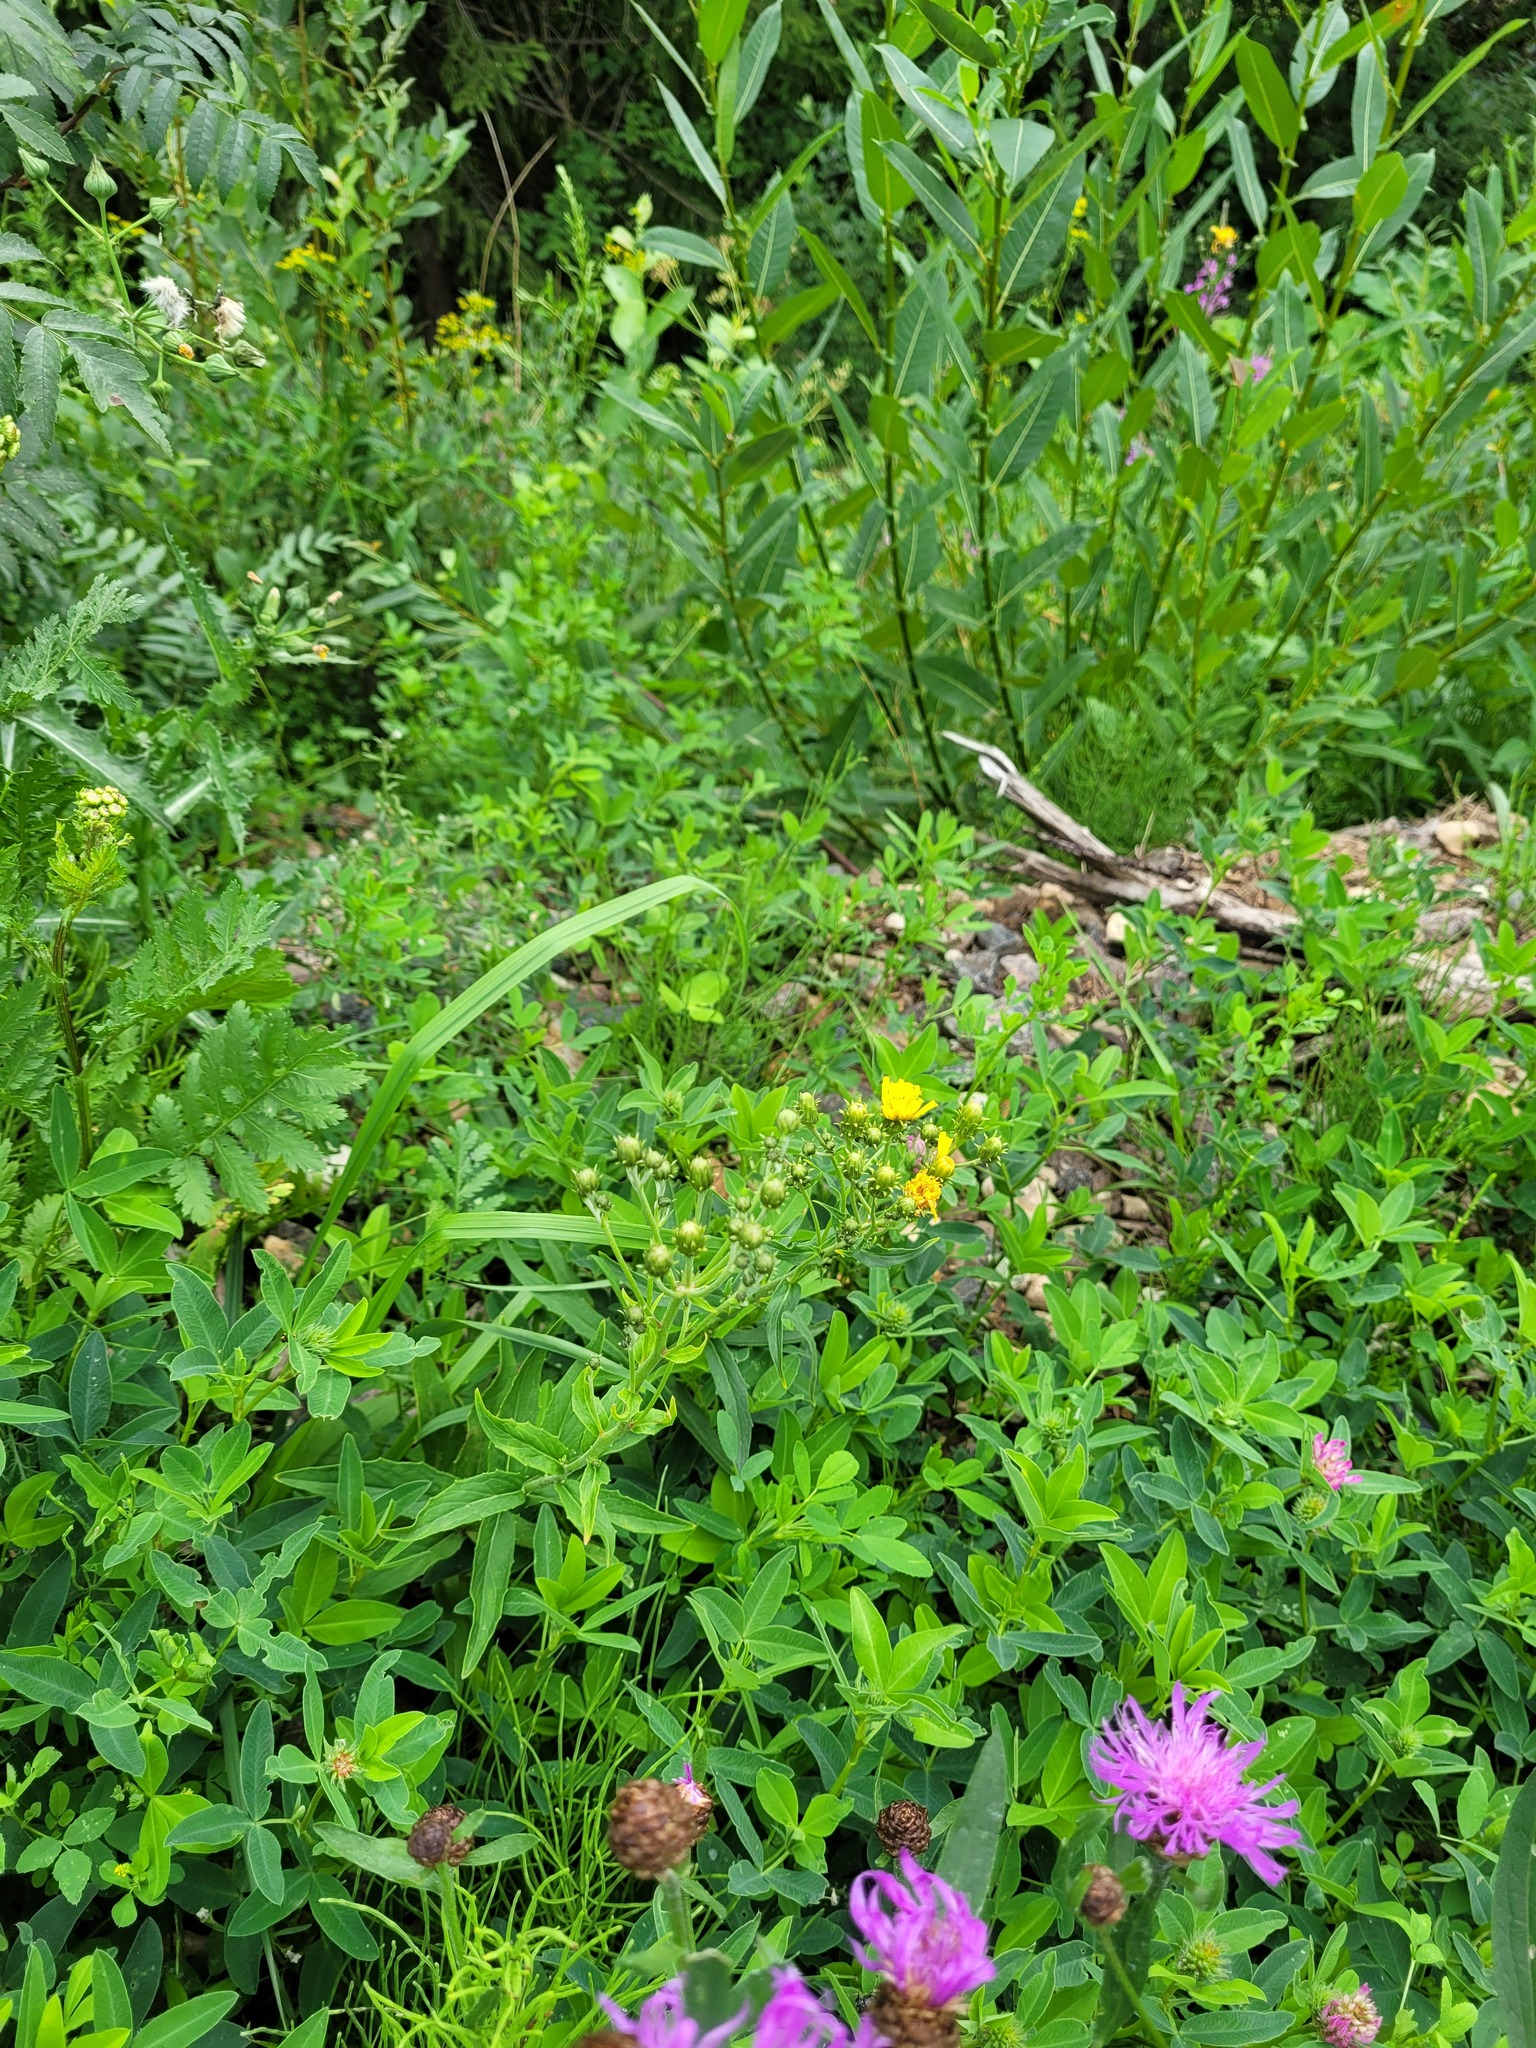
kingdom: Plantae
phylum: Tracheophyta
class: Magnoliopsida
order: Asterales
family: Asteraceae
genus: Hieracium
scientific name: Hieracium umbellatum
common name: Northern hawkweed
